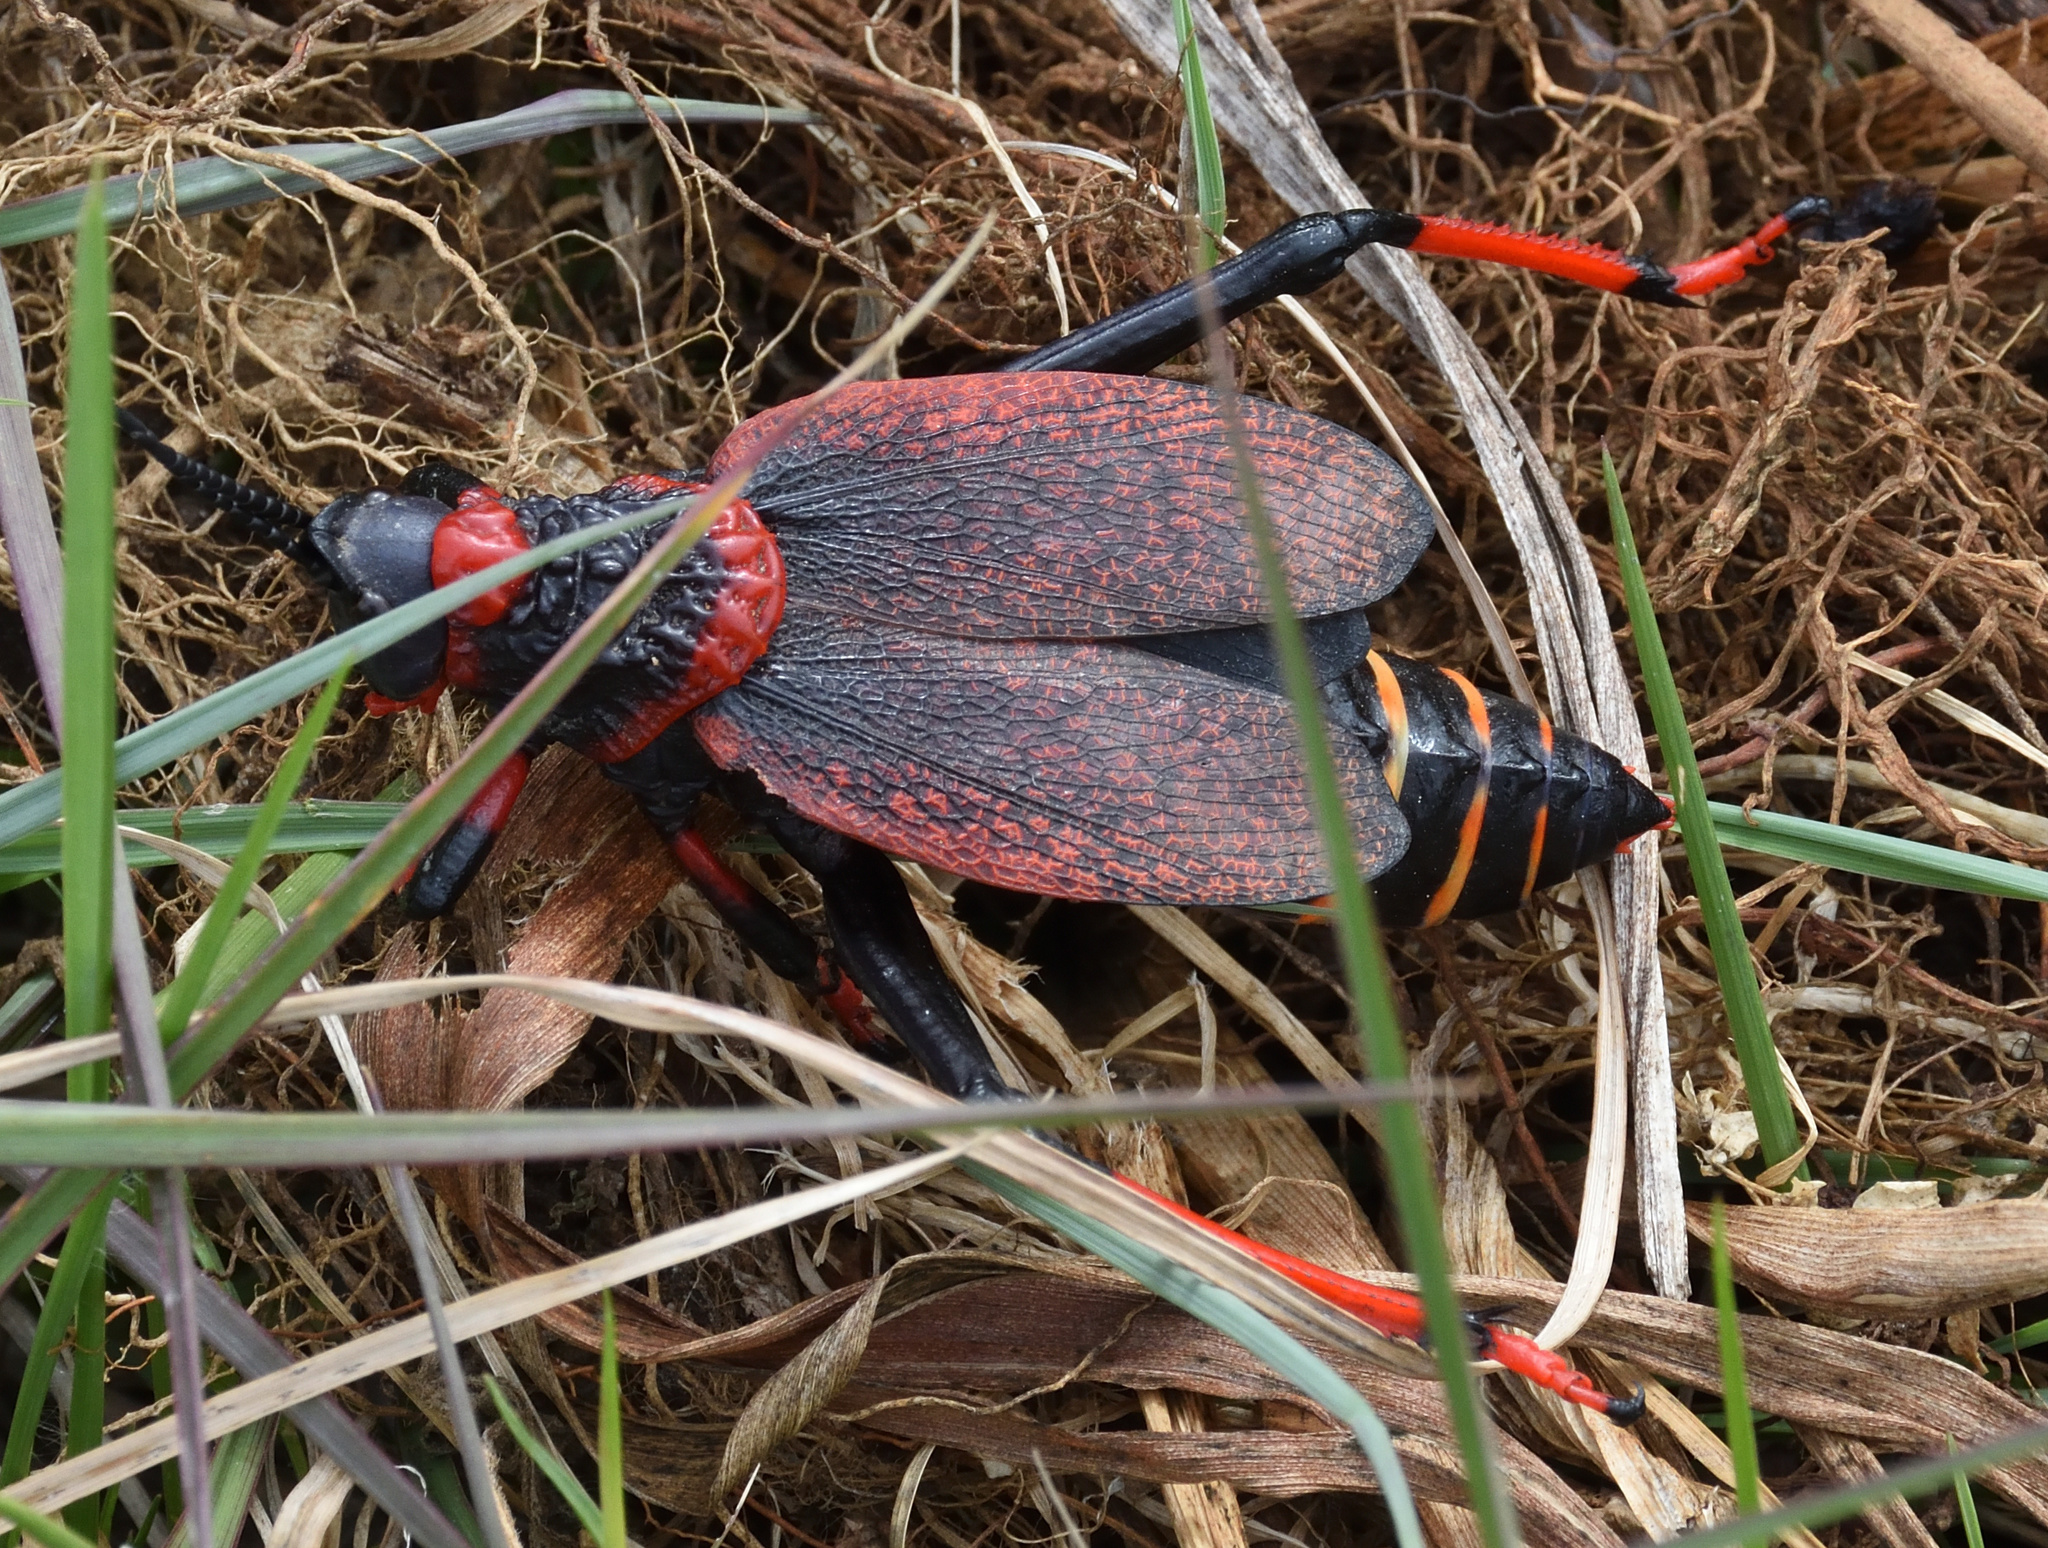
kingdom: Animalia
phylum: Arthropoda
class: Insecta
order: Orthoptera
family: Pyrgomorphidae
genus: Dictyophorus
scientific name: Dictyophorus spumans
